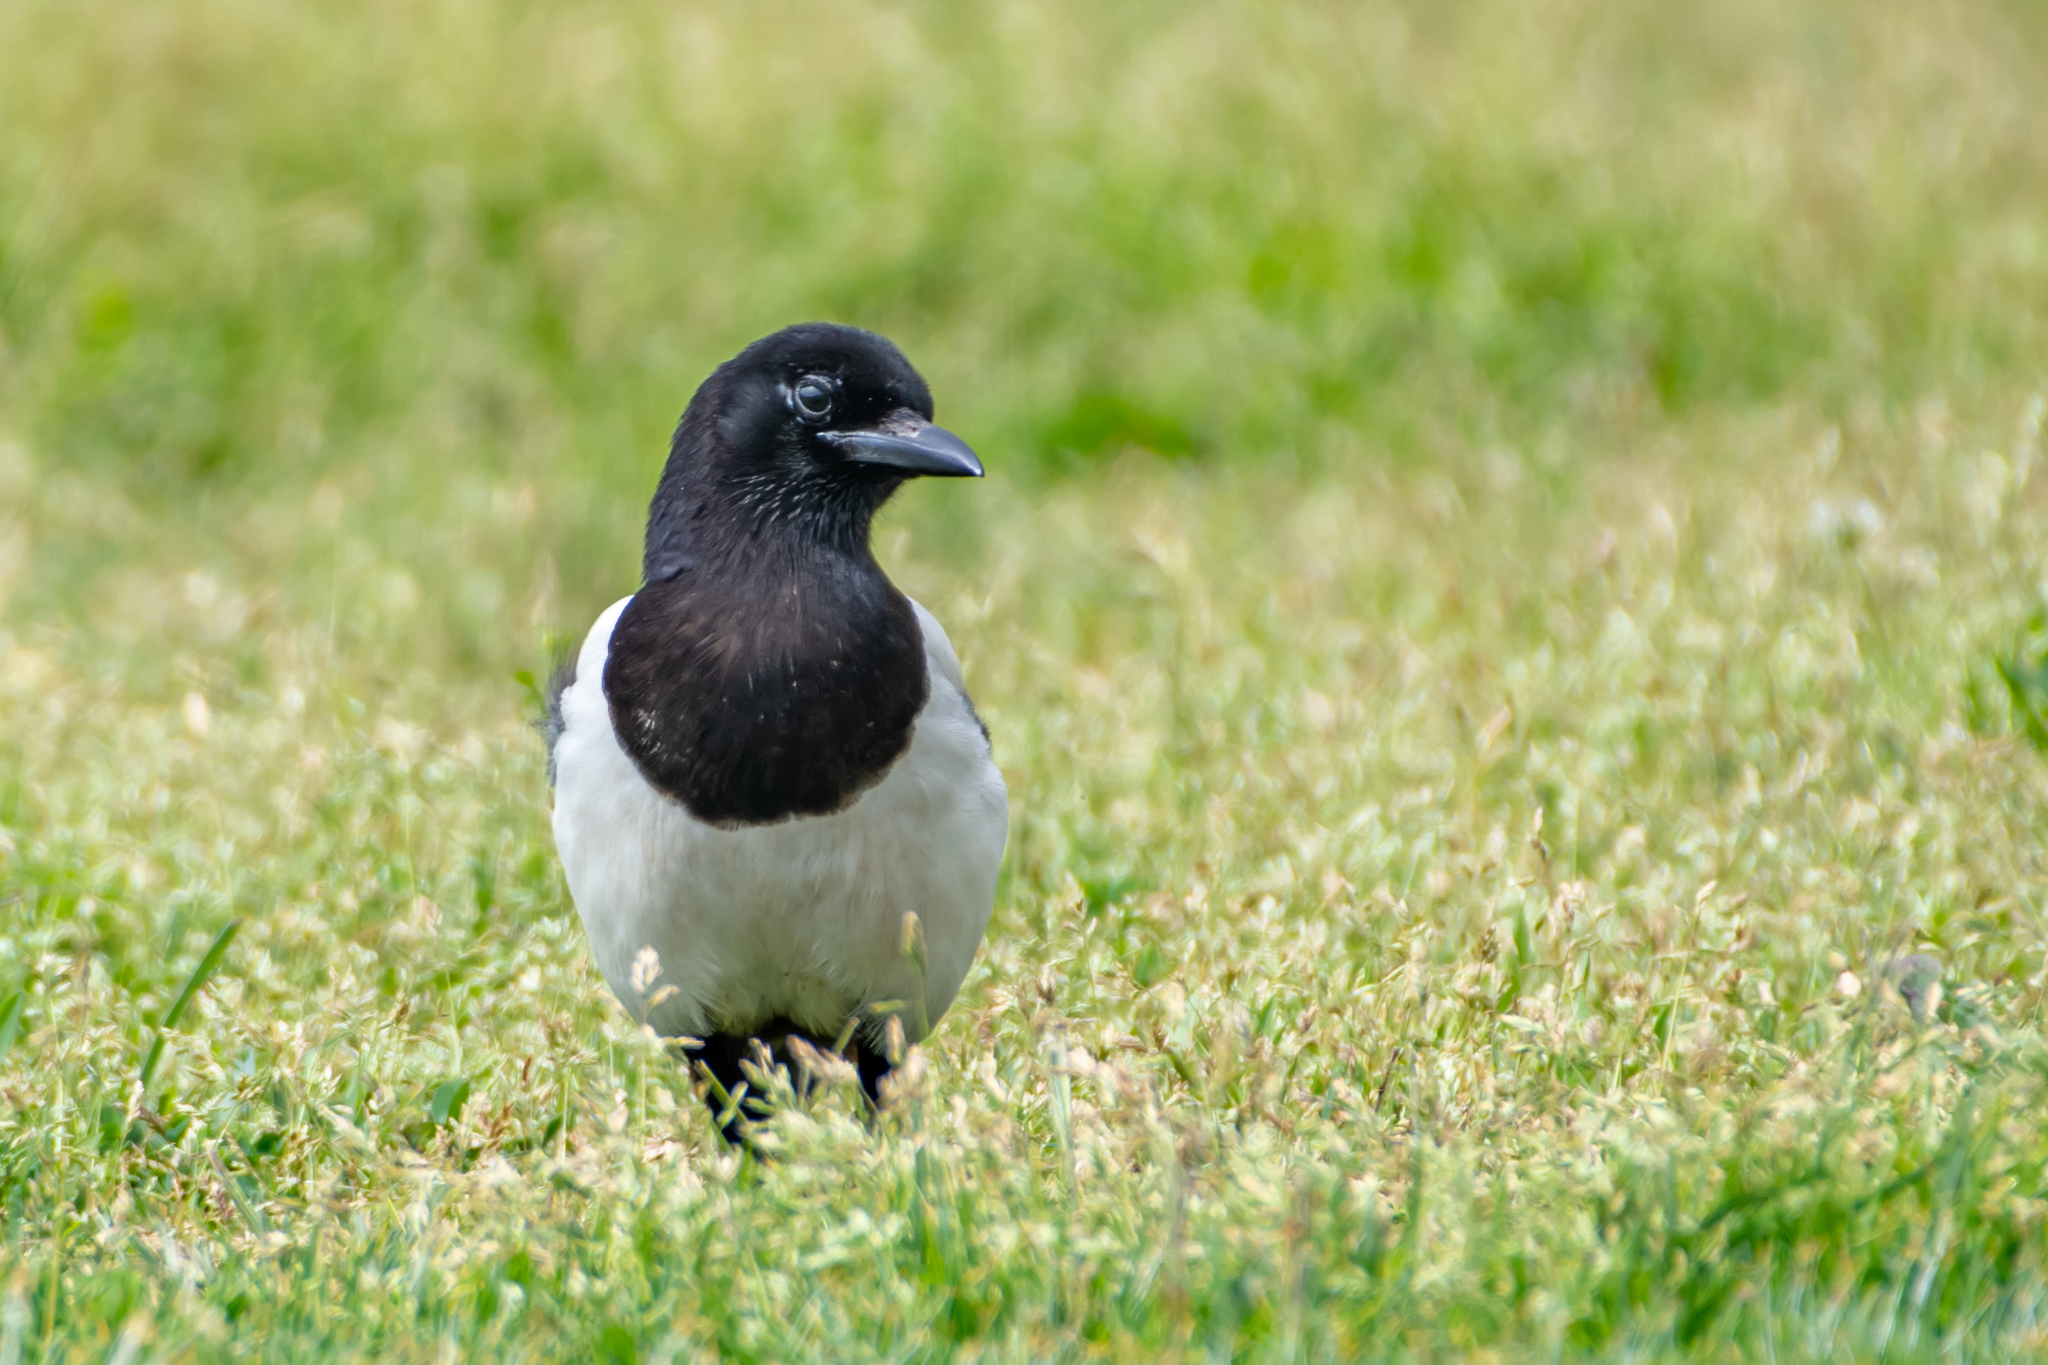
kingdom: Animalia
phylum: Chordata
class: Aves
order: Passeriformes
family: Corvidae
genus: Pica
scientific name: Pica pica
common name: Eurasian magpie
